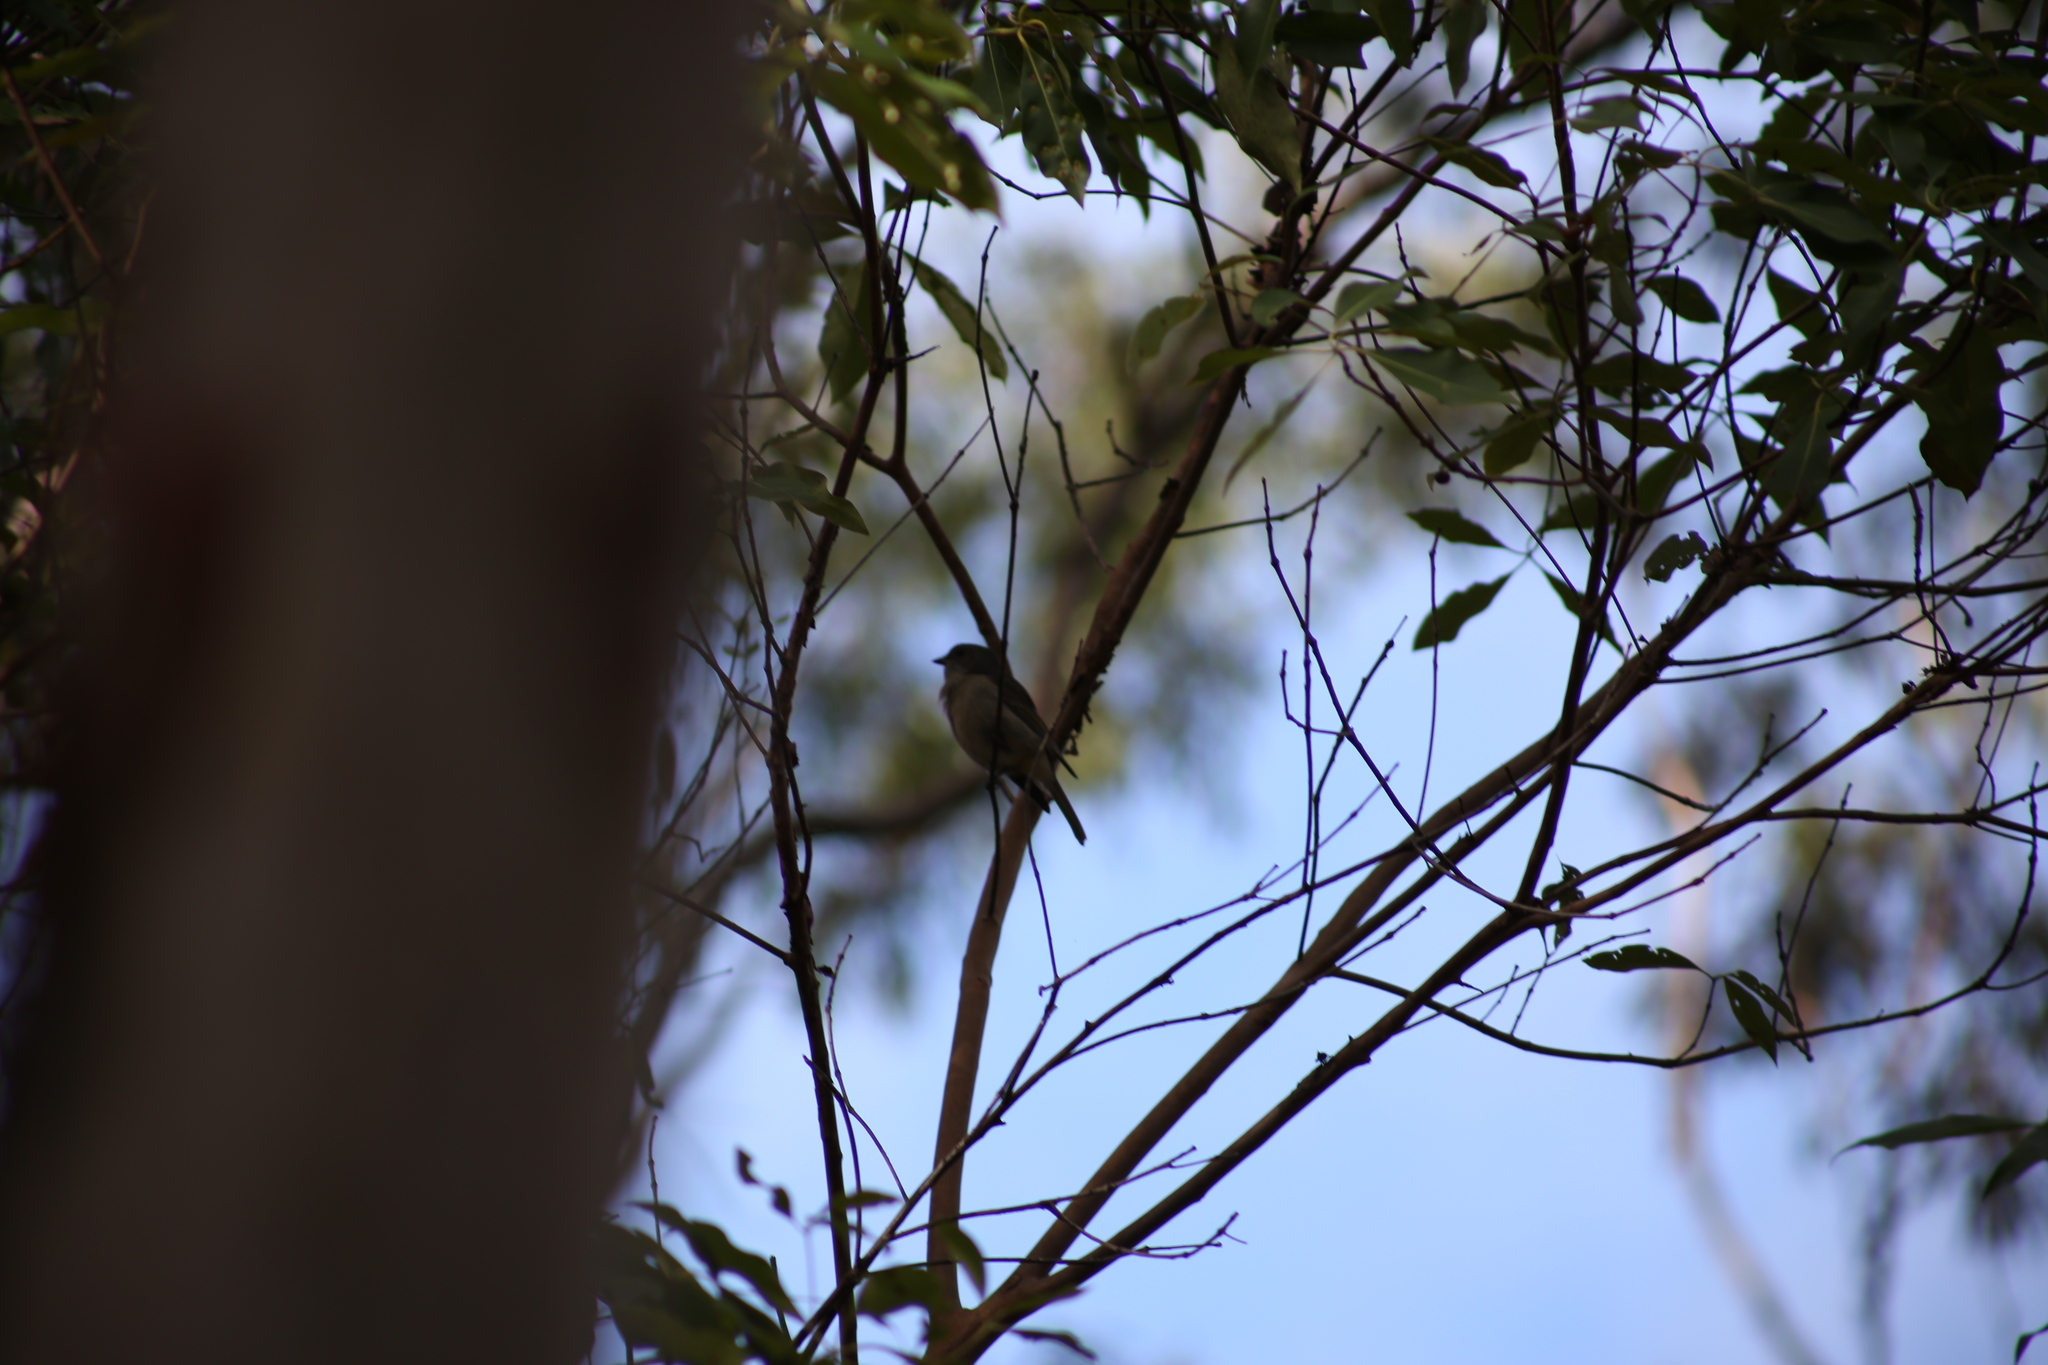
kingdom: Animalia
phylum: Chordata
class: Aves
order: Passeriformes
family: Pachycephalidae
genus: Pachycephala
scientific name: Pachycephala pectoralis
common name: Australian golden whistler
